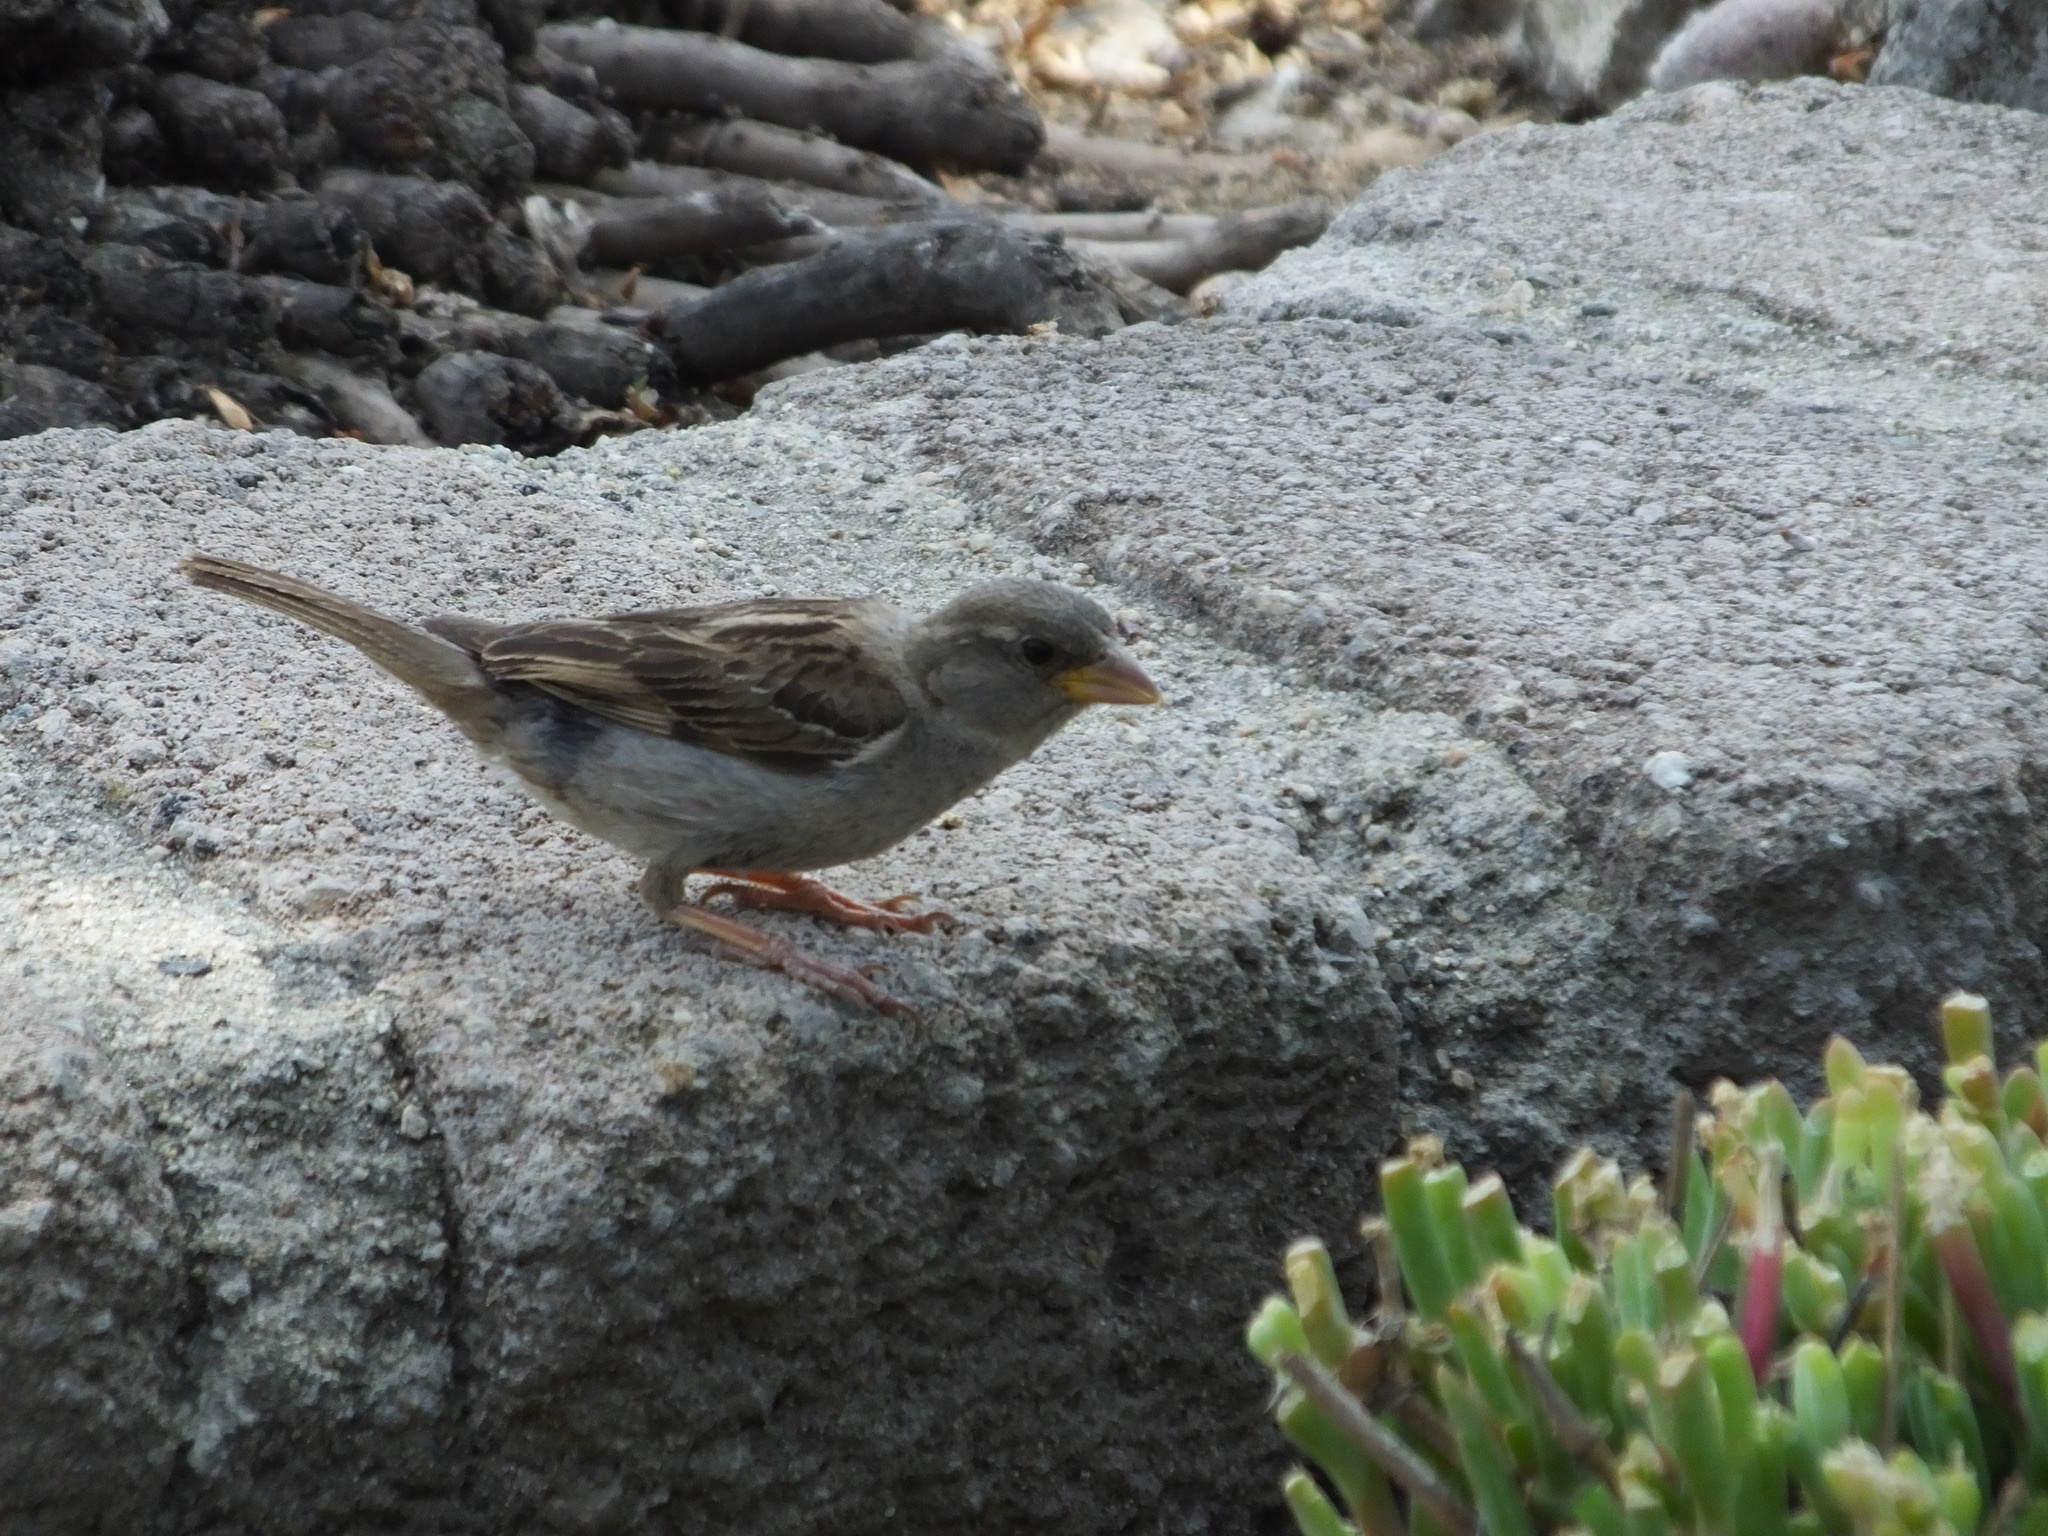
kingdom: Animalia
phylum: Chordata
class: Aves
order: Passeriformes
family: Passeridae
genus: Passer
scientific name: Passer domesticus
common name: House sparrow
